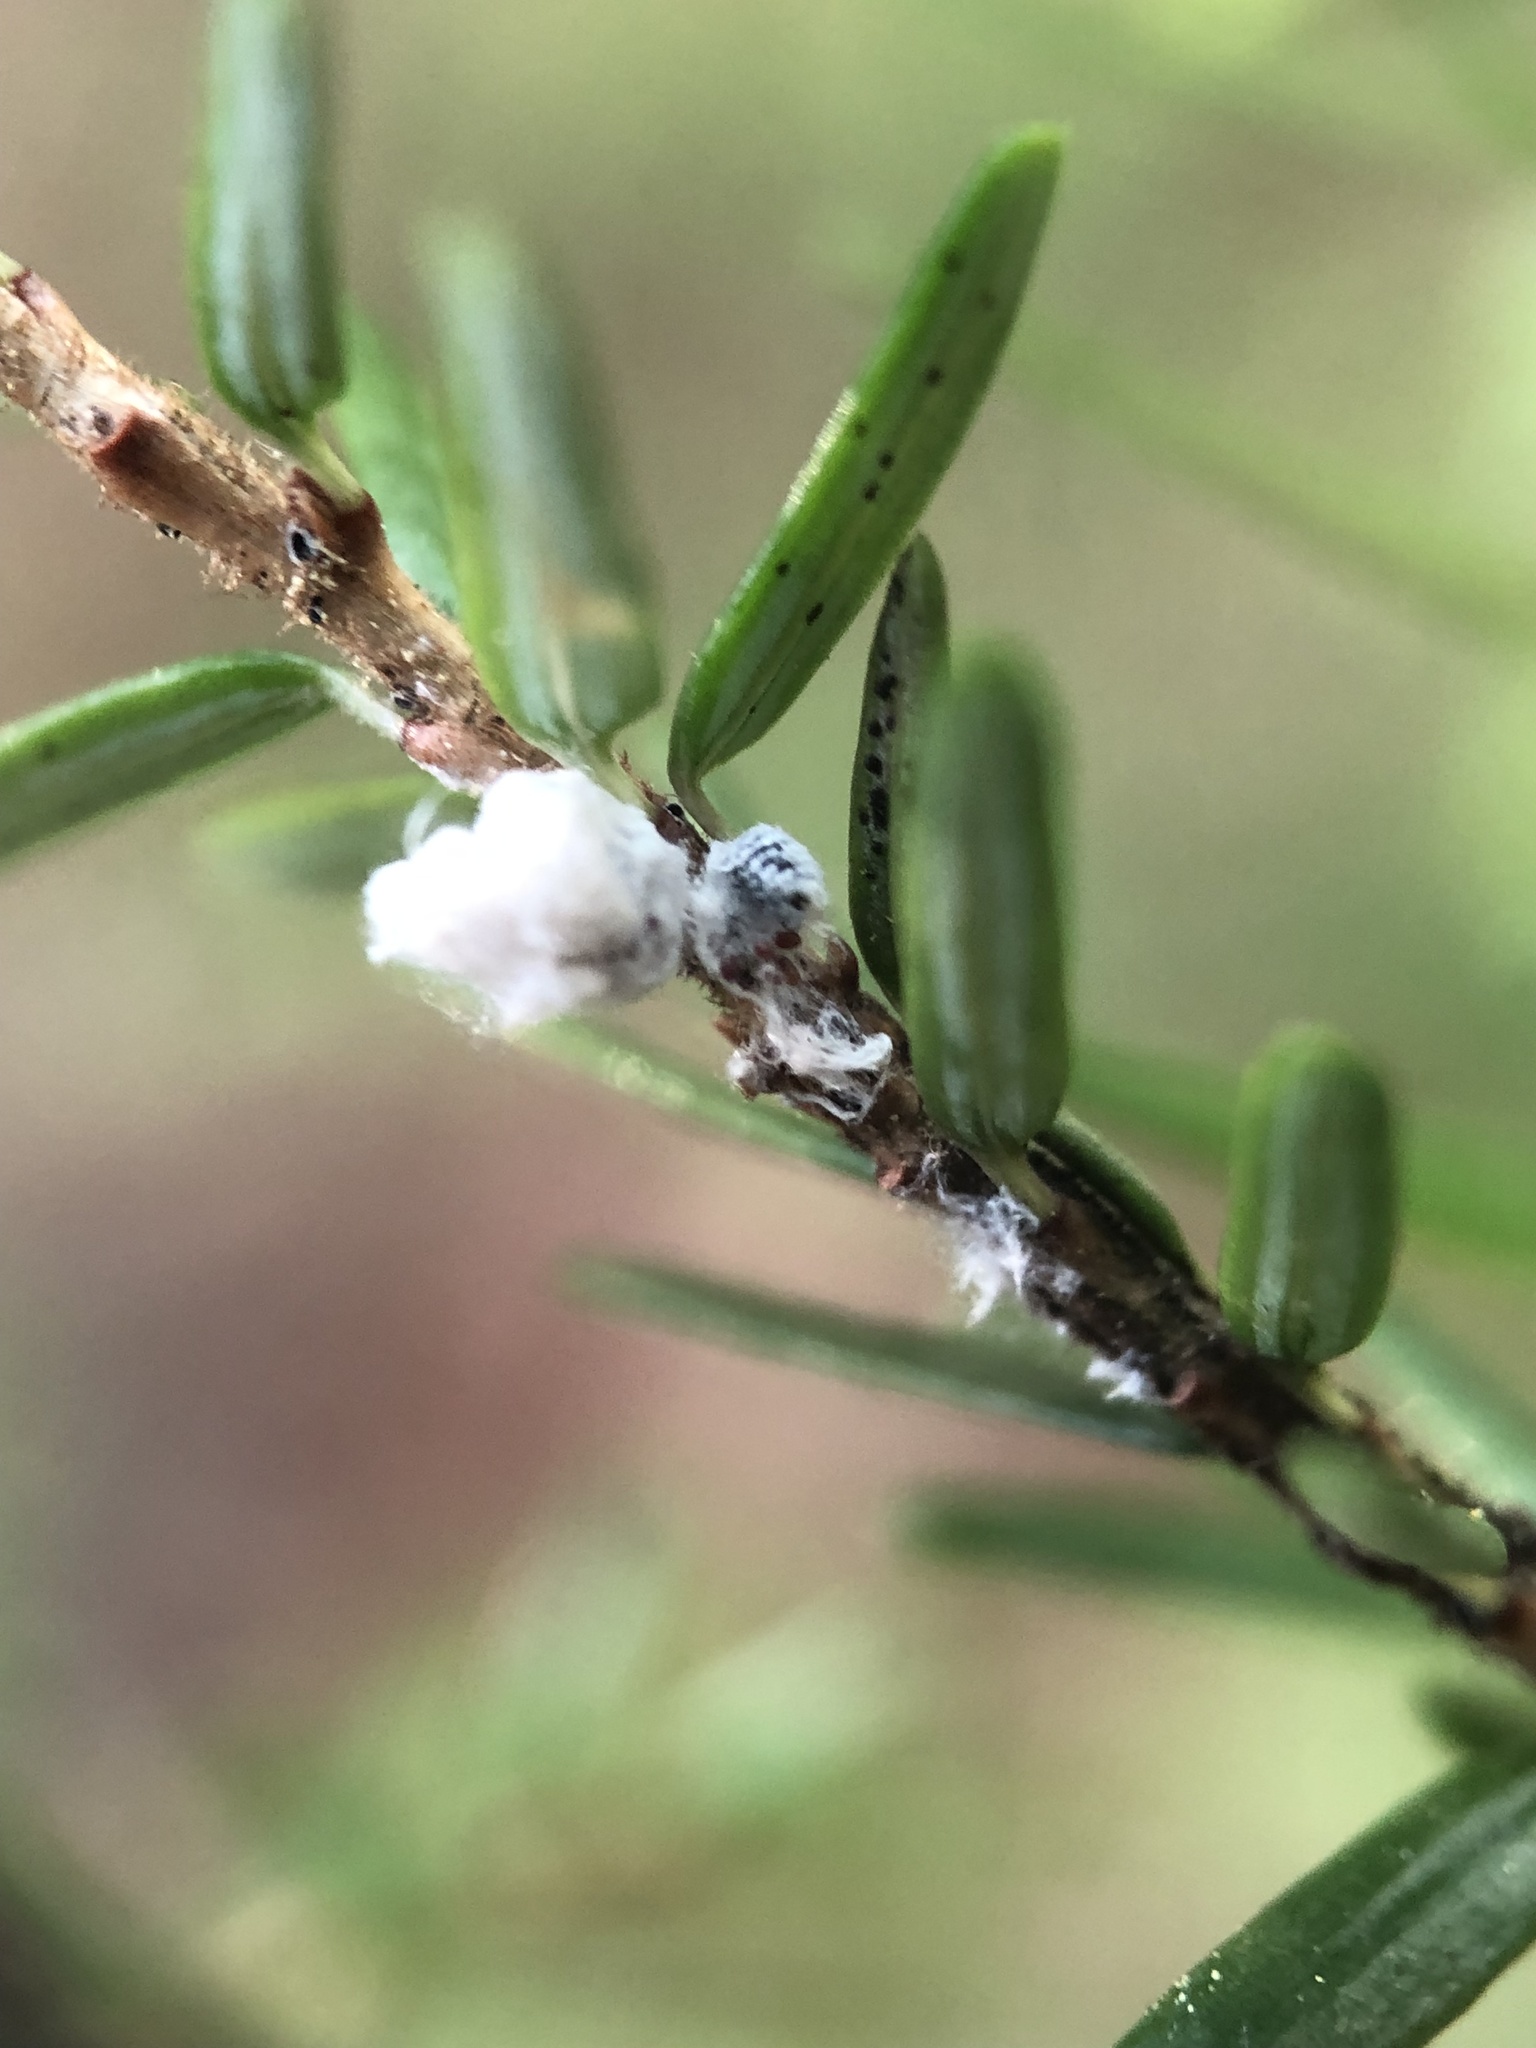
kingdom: Animalia
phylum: Arthropoda
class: Insecta
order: Hemiptera
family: Adelgidae
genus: Adelges
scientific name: Adelges tsugae
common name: Hemlock woolly adelgid
